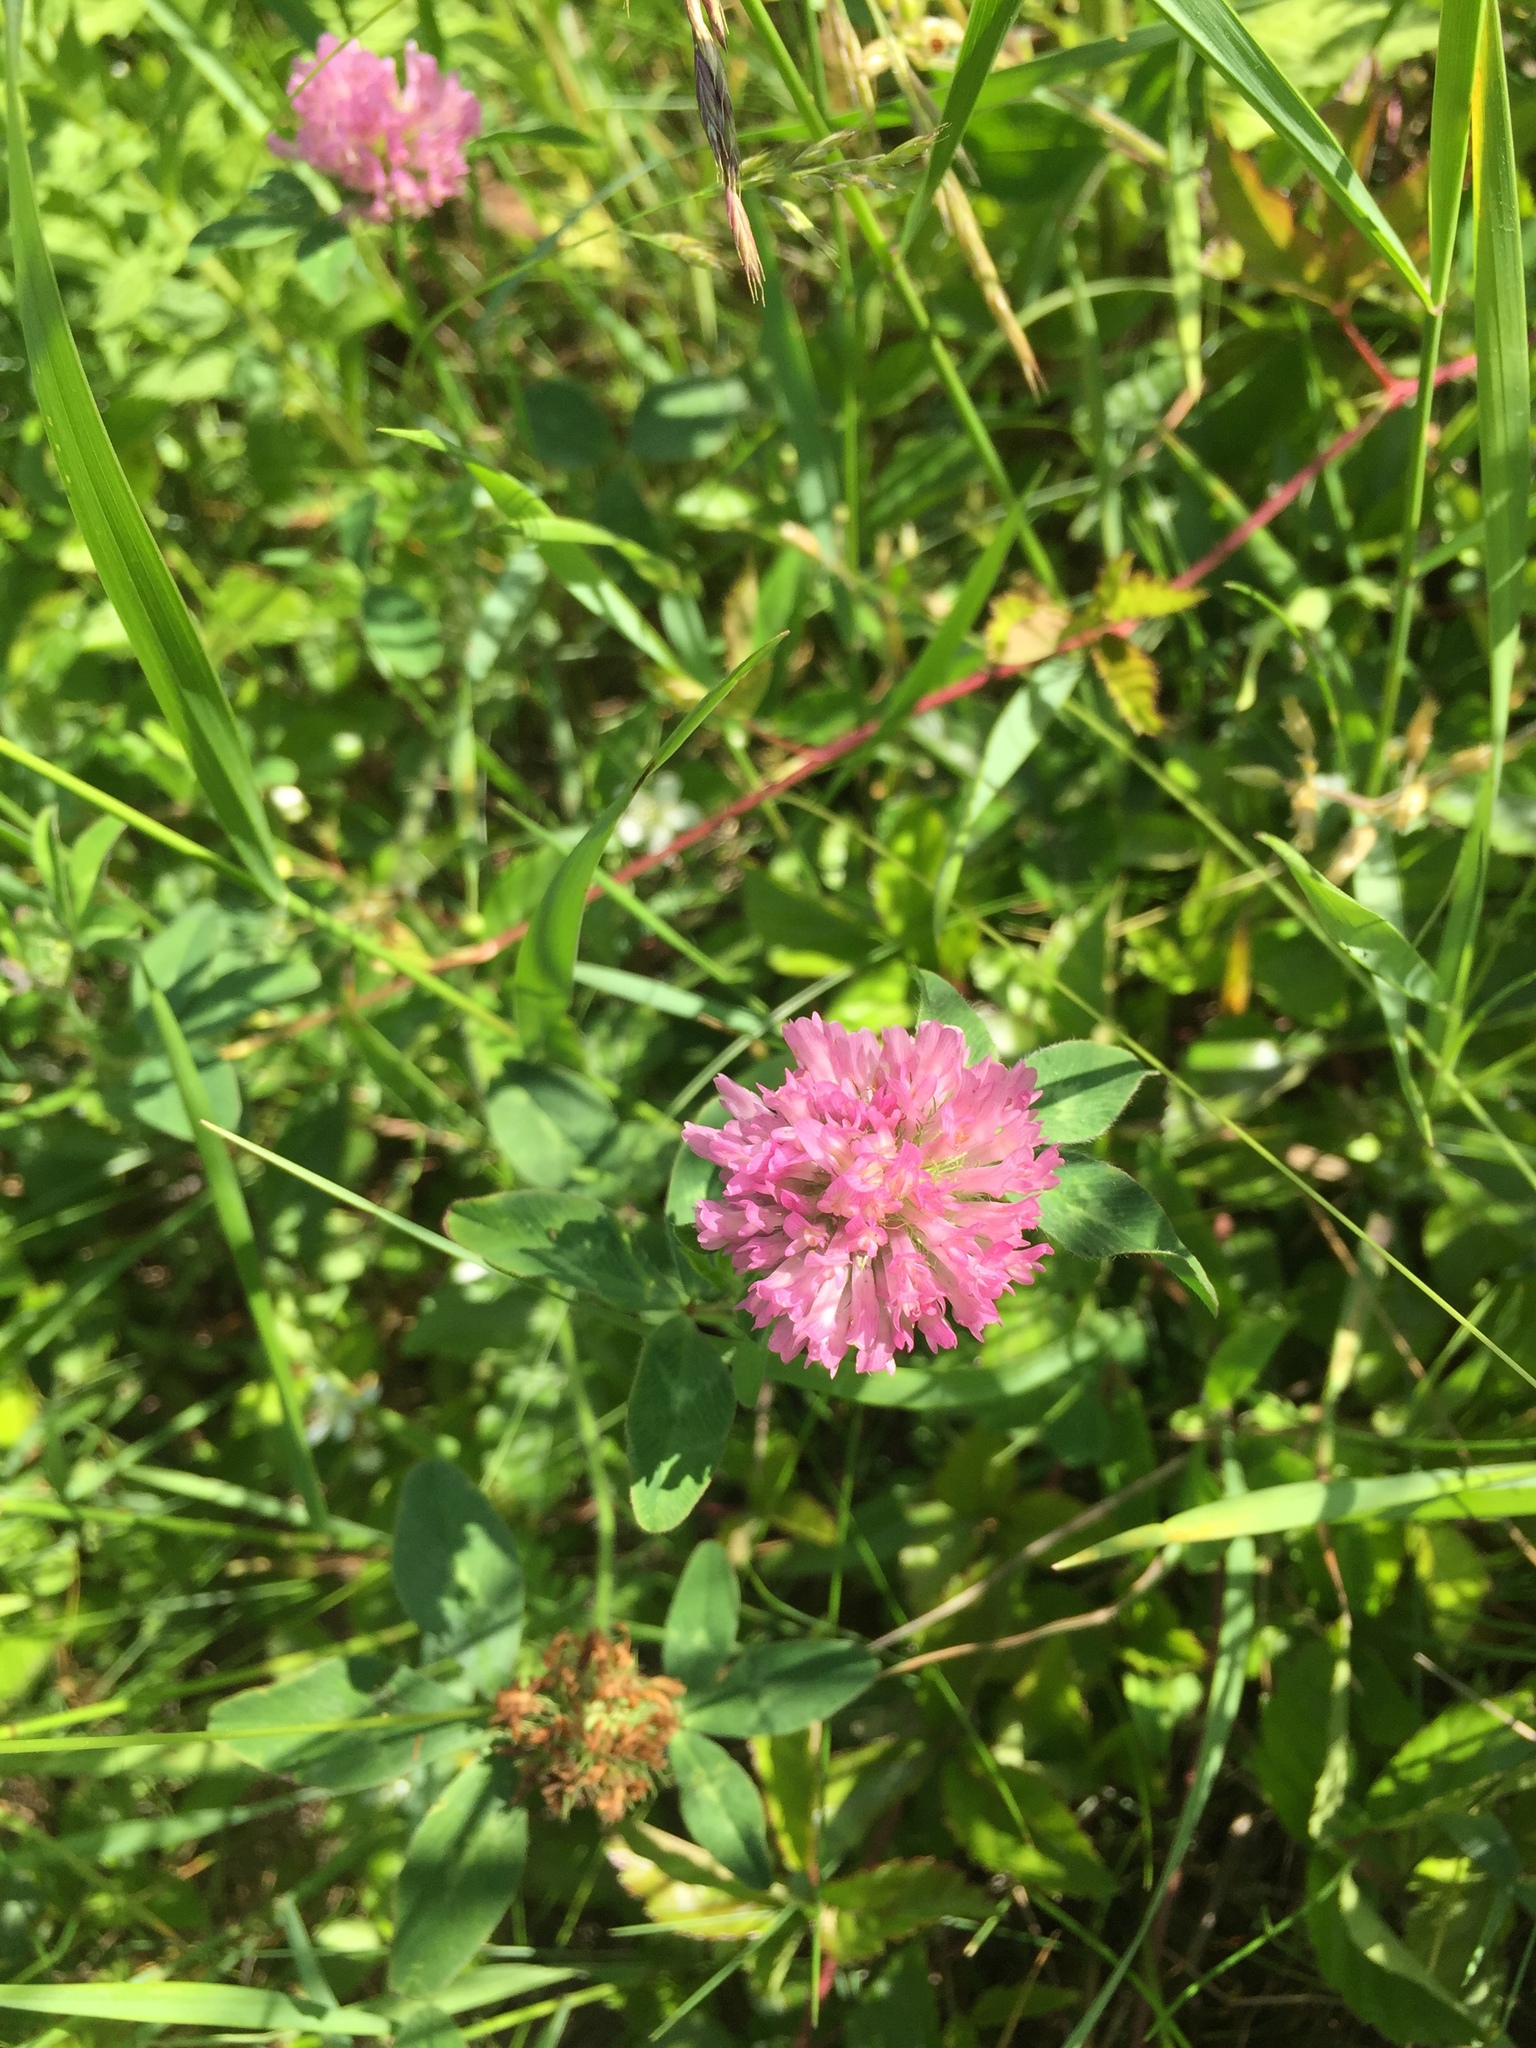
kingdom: Plantae
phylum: Tracheophyta
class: Magnoliopsida
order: Fabales
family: Fabaceae
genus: Trifolium
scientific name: Trifolium pratense
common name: Red clover
